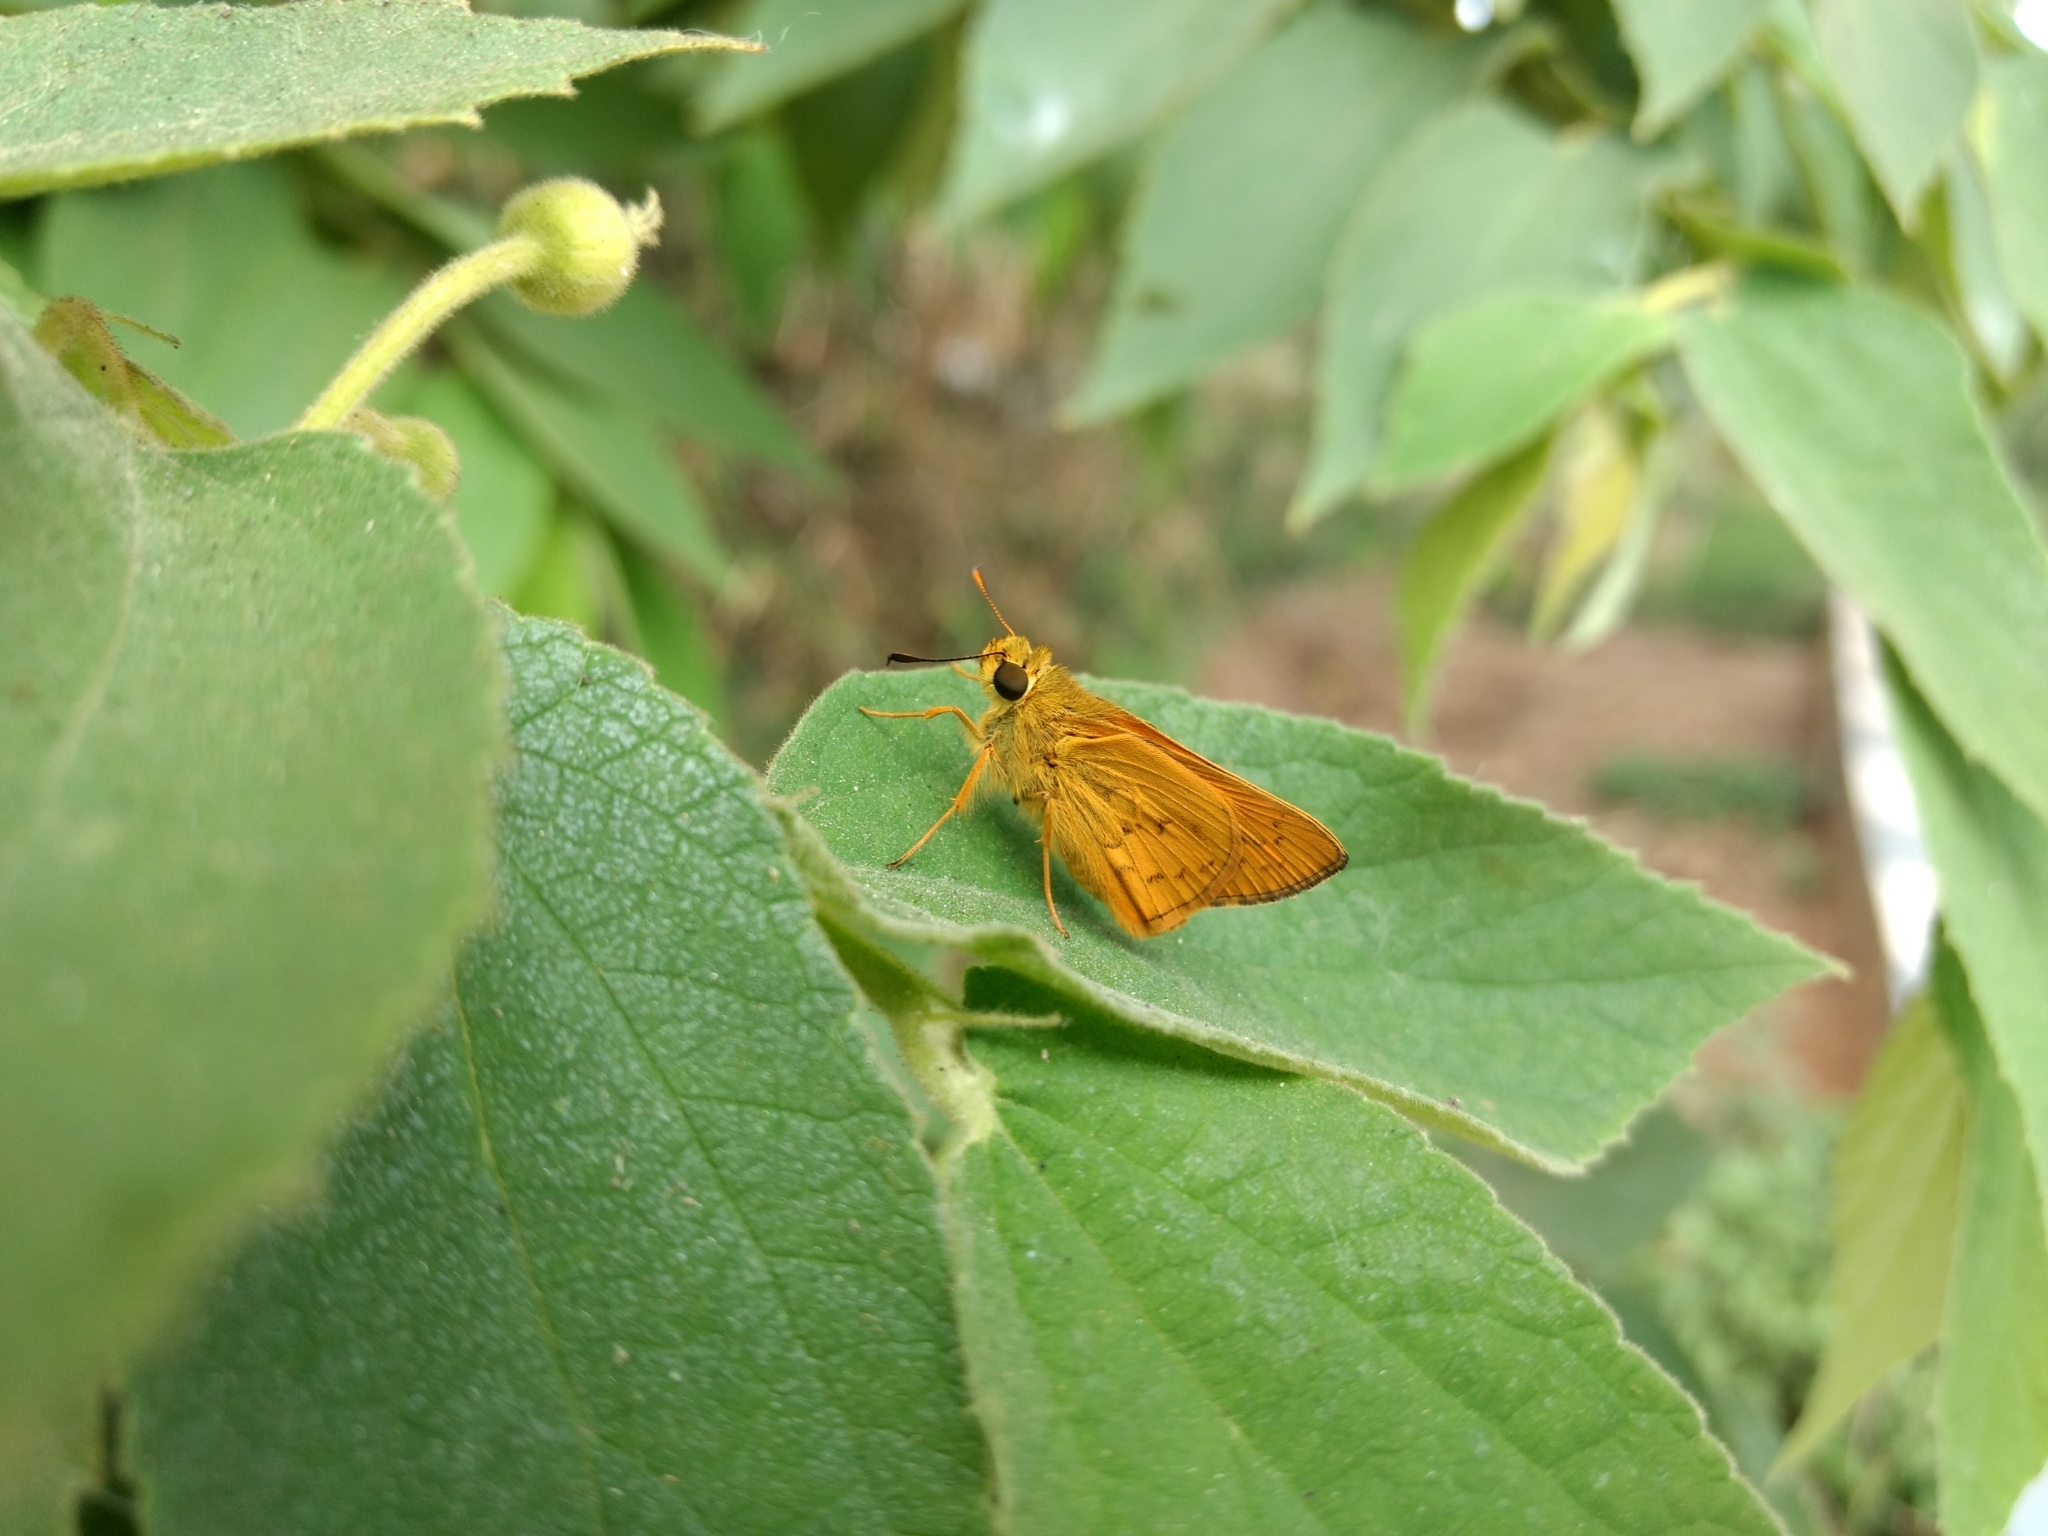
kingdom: Animalia
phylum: Arthropoda
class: Insecta
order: Lepidoptera
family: Hesperiidae
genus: Telicota
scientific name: Telicota bambusae
